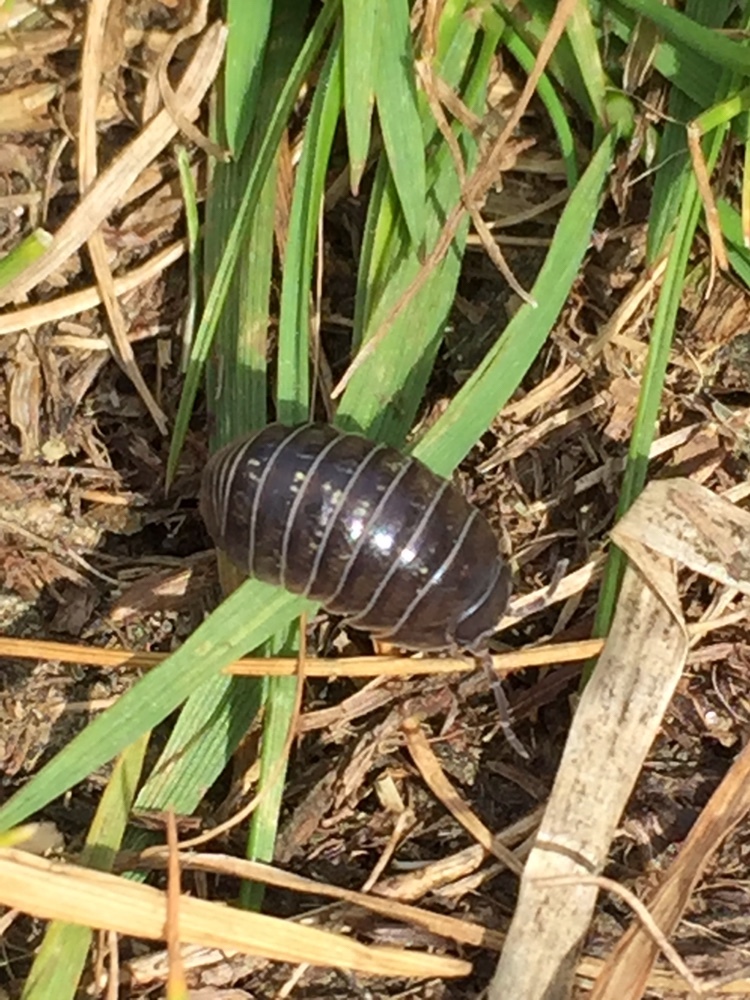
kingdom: Animalia
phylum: Arthropoda
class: Malacostraca
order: Isopoda
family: Armadillidiidae
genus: Armadillidium
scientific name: Armadillidium vulgare
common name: Common pill woodlouse
